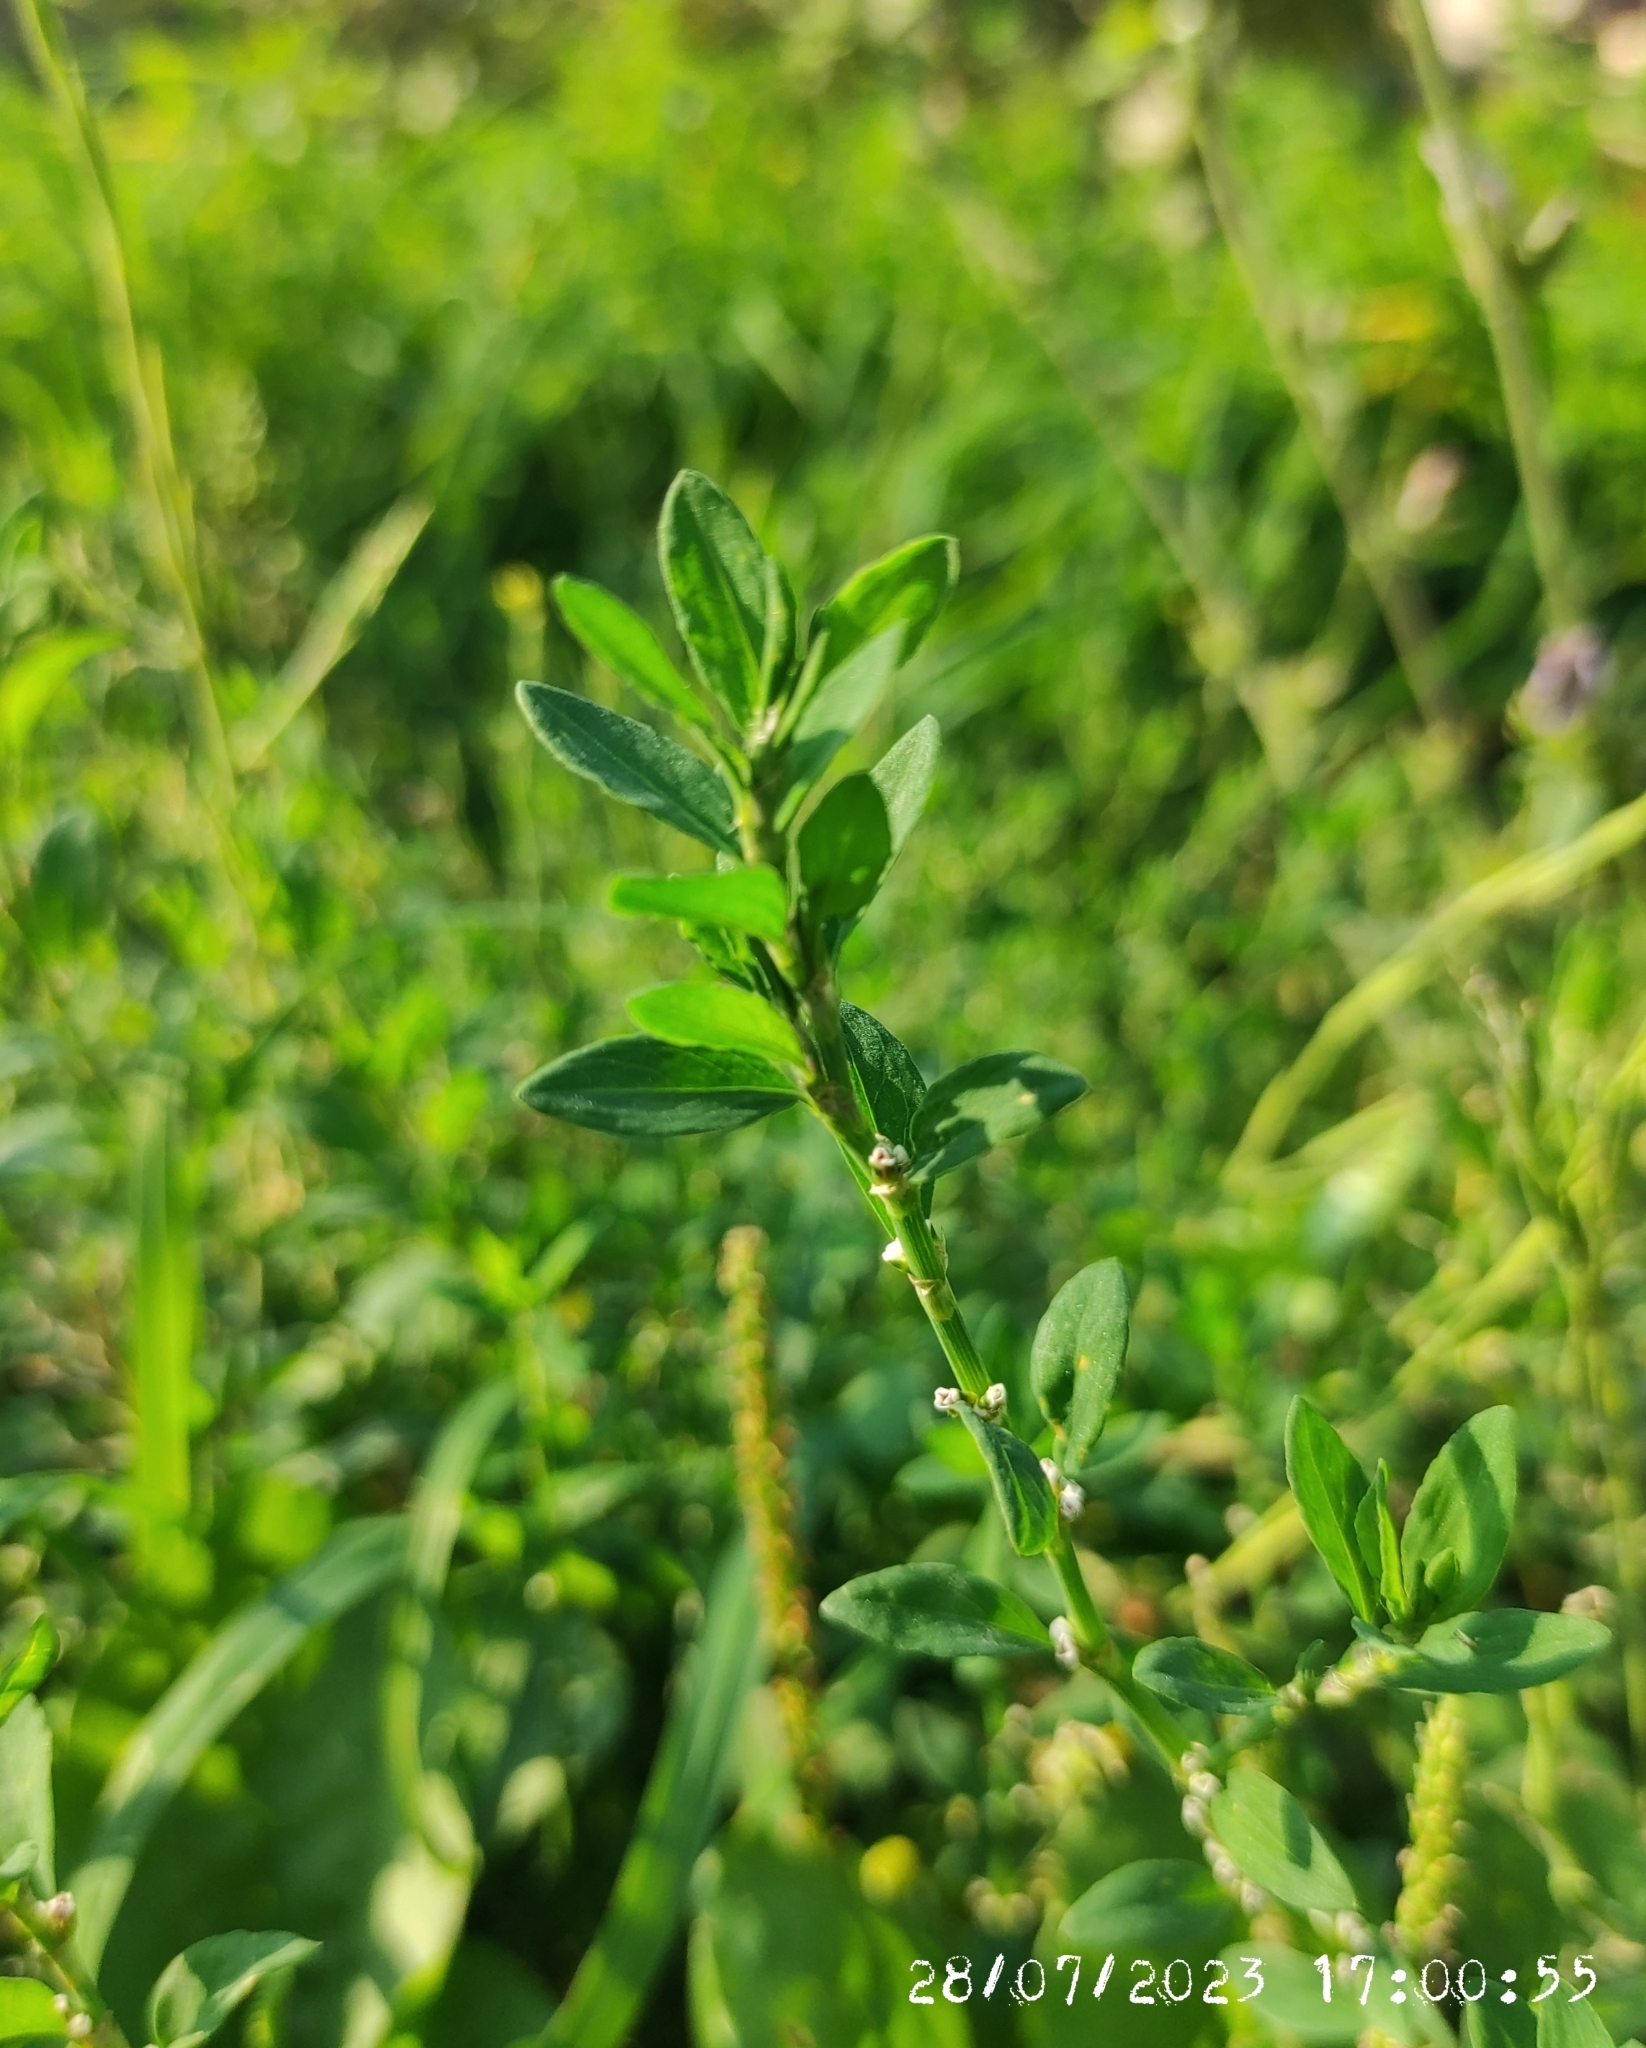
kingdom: Plantae
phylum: Tracheophyta
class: Magnoliopsida
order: Caryophyllales
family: Polygonaceae
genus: Polygonum
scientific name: Polygonum
